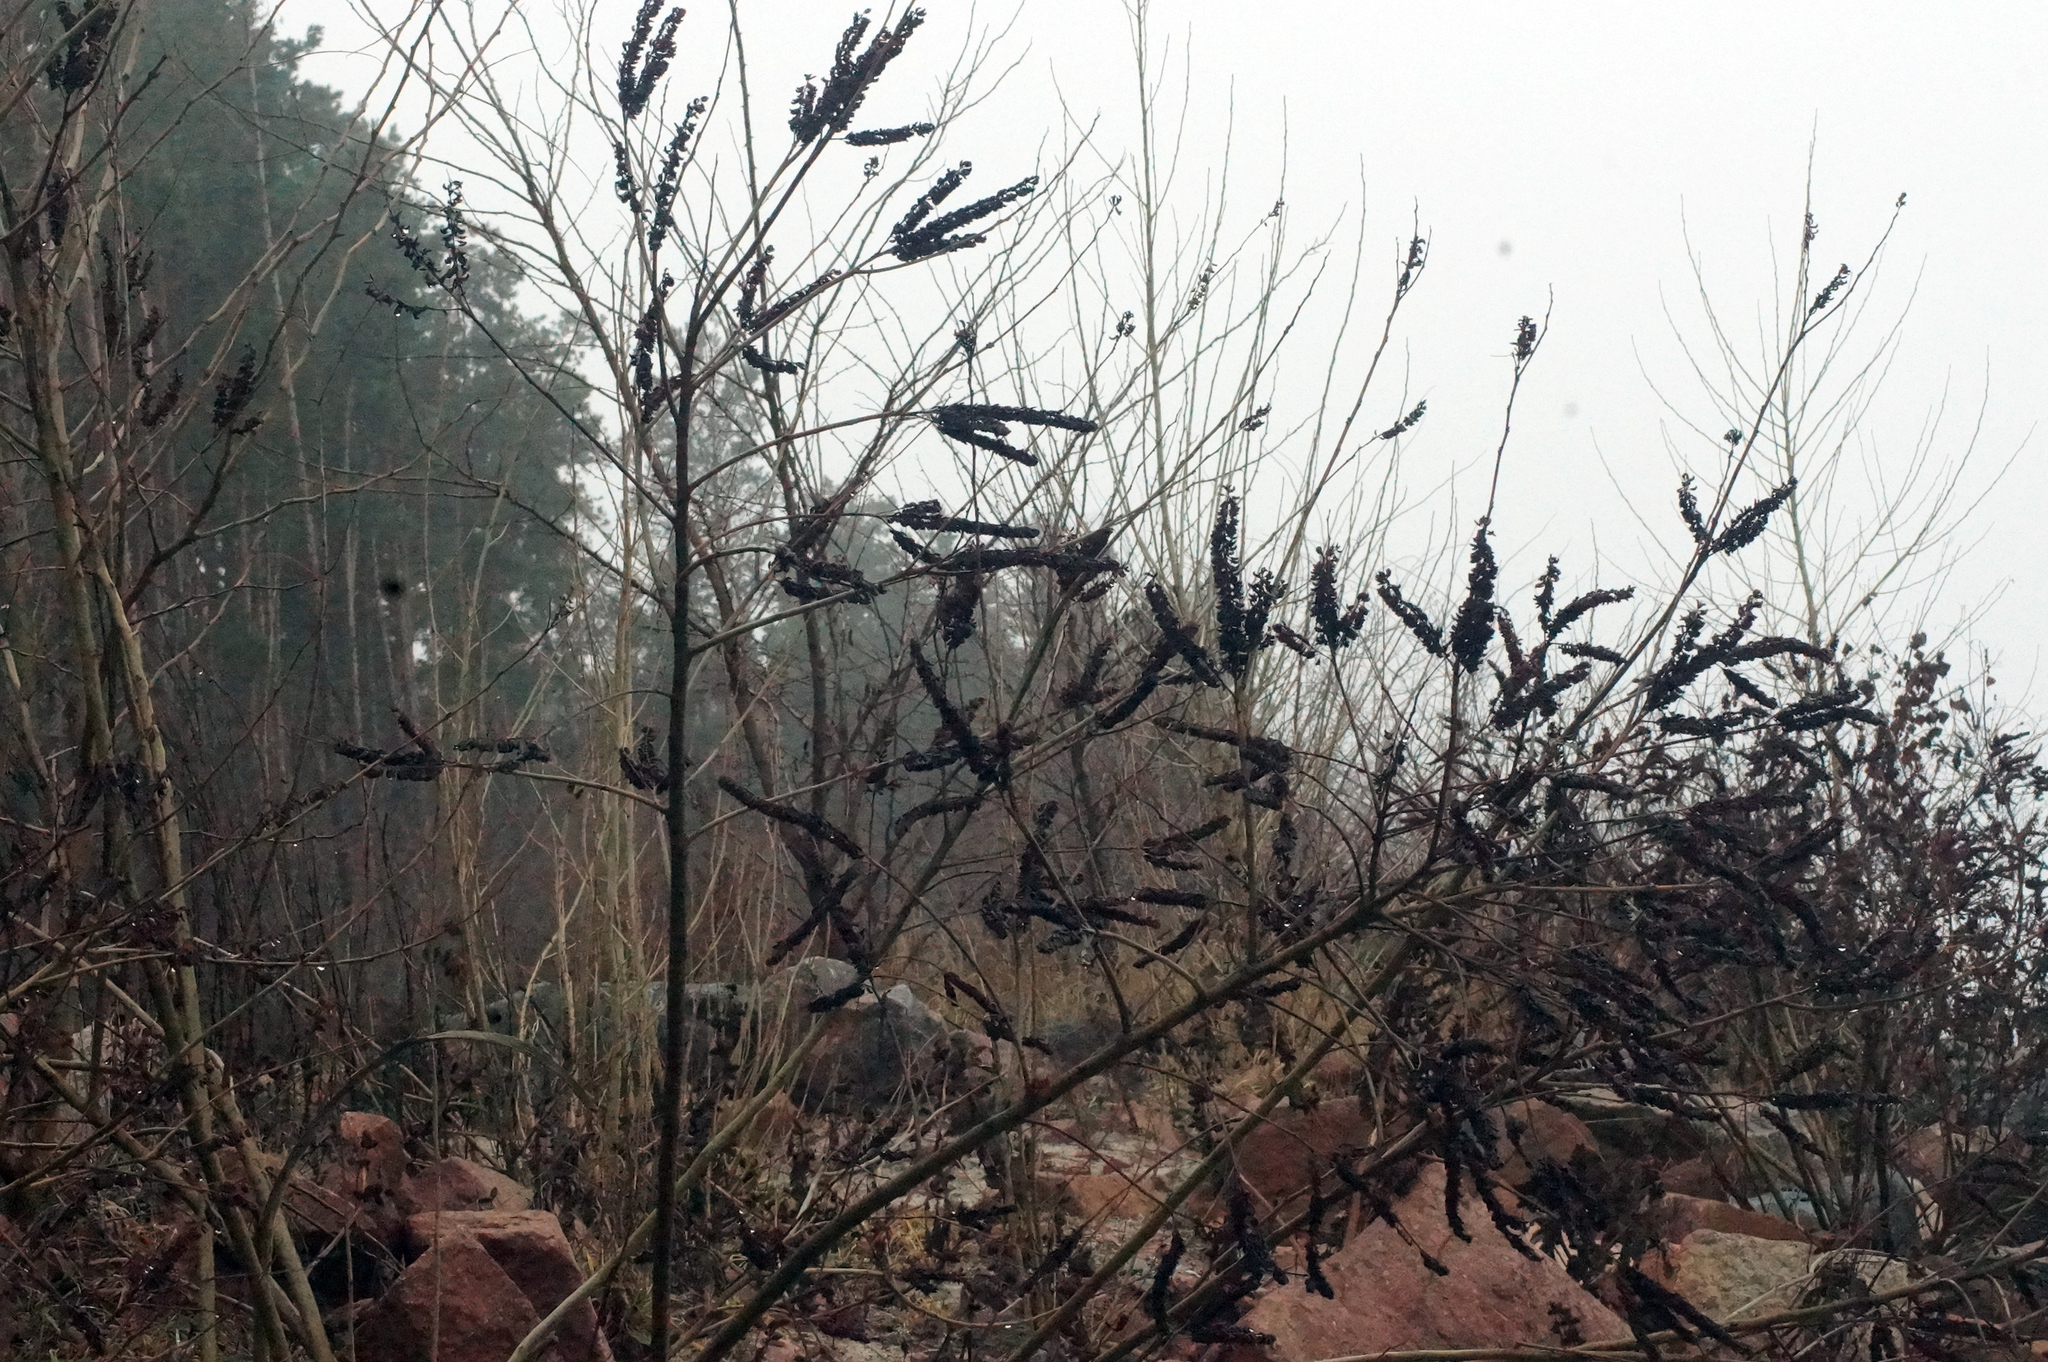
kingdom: Plantae
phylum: Tracheophyta
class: Magnoliopsida
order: Fabales
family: Fabaceae
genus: Amorpha
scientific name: Amorpha fruticosa
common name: False indigo
